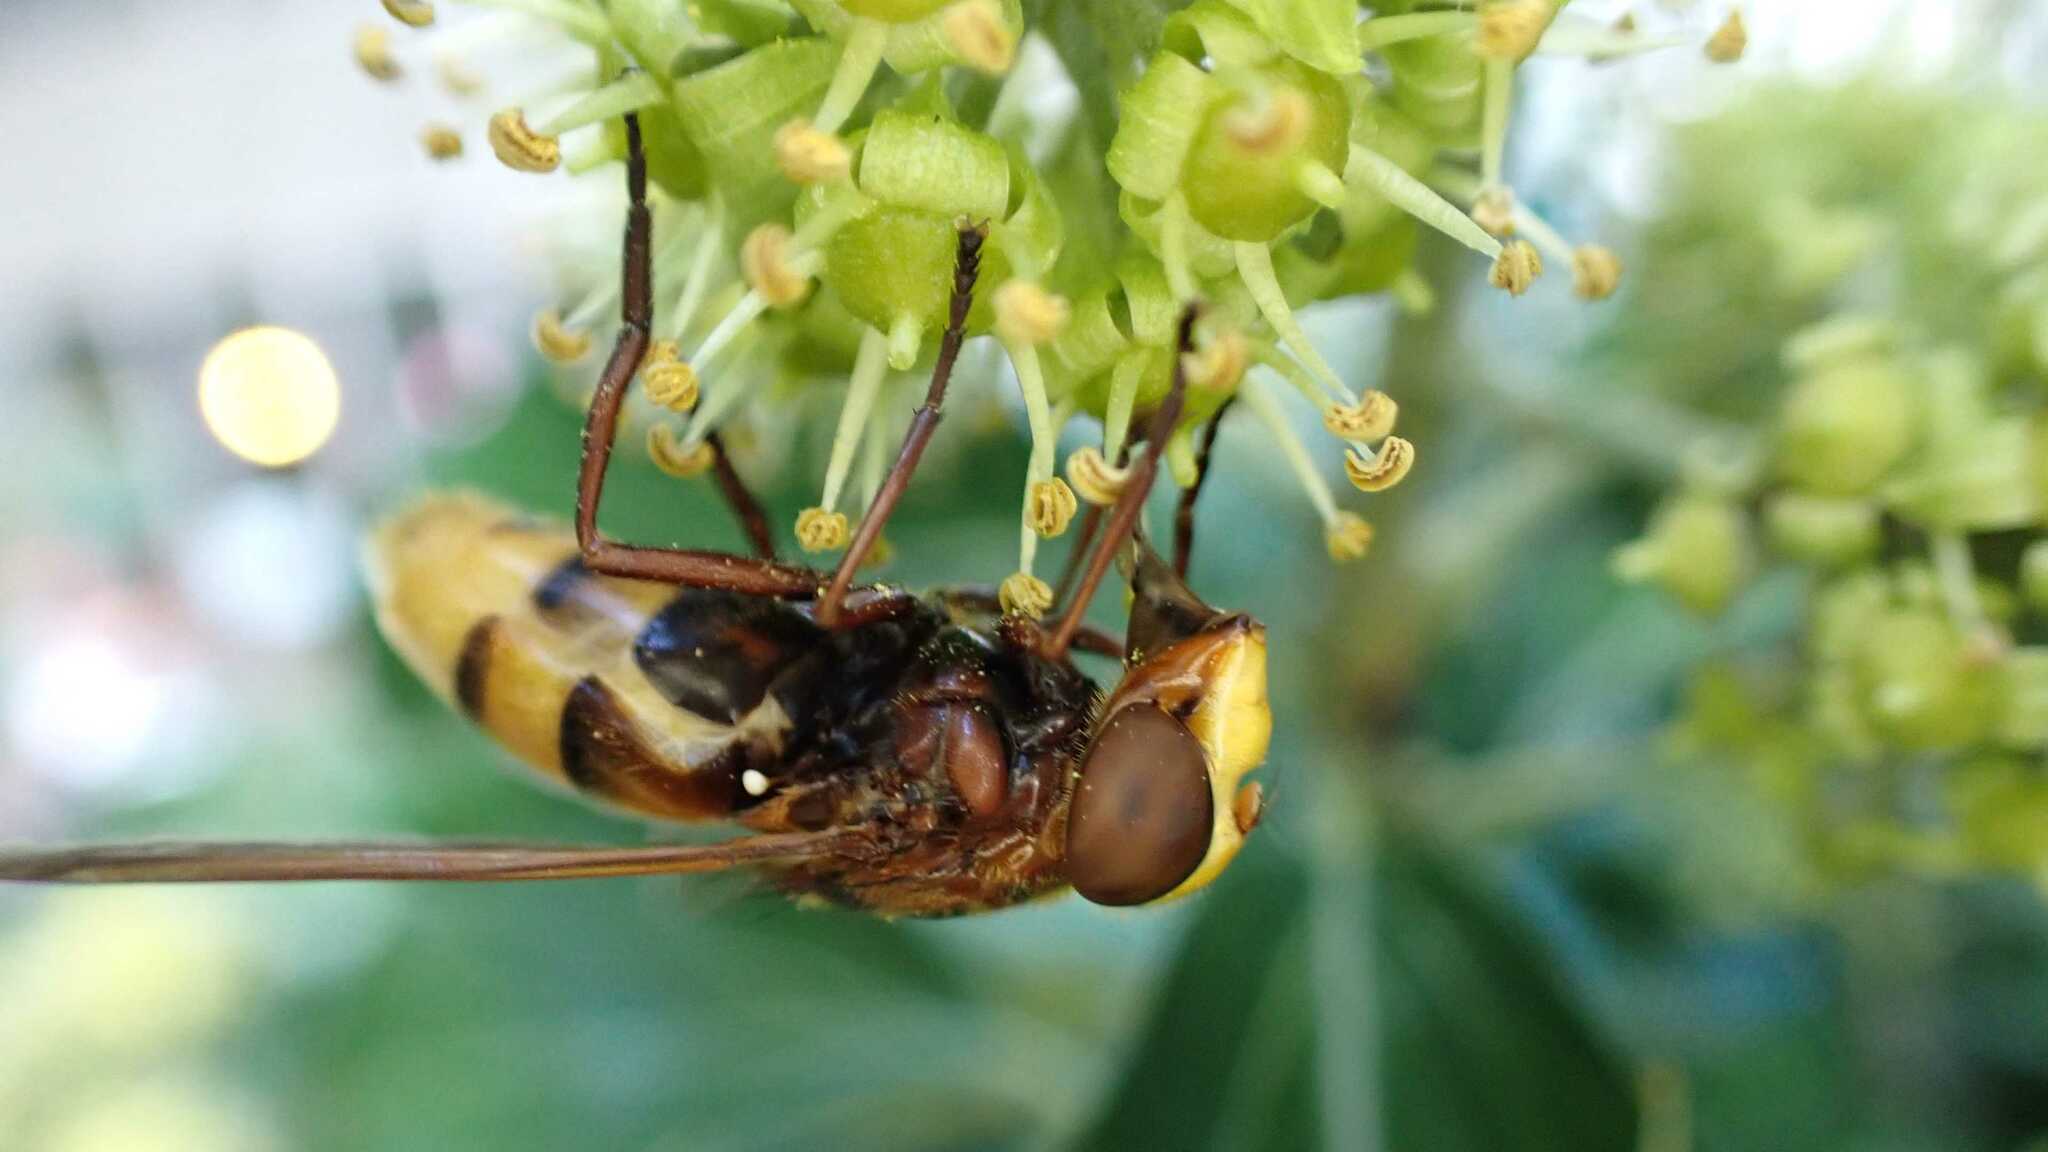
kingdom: Animalia
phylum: Arthropoda
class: Insecta
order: Diptera
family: Syrphidae
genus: Volucella
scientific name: Volucella zonaria
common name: Hornet hoverfly
